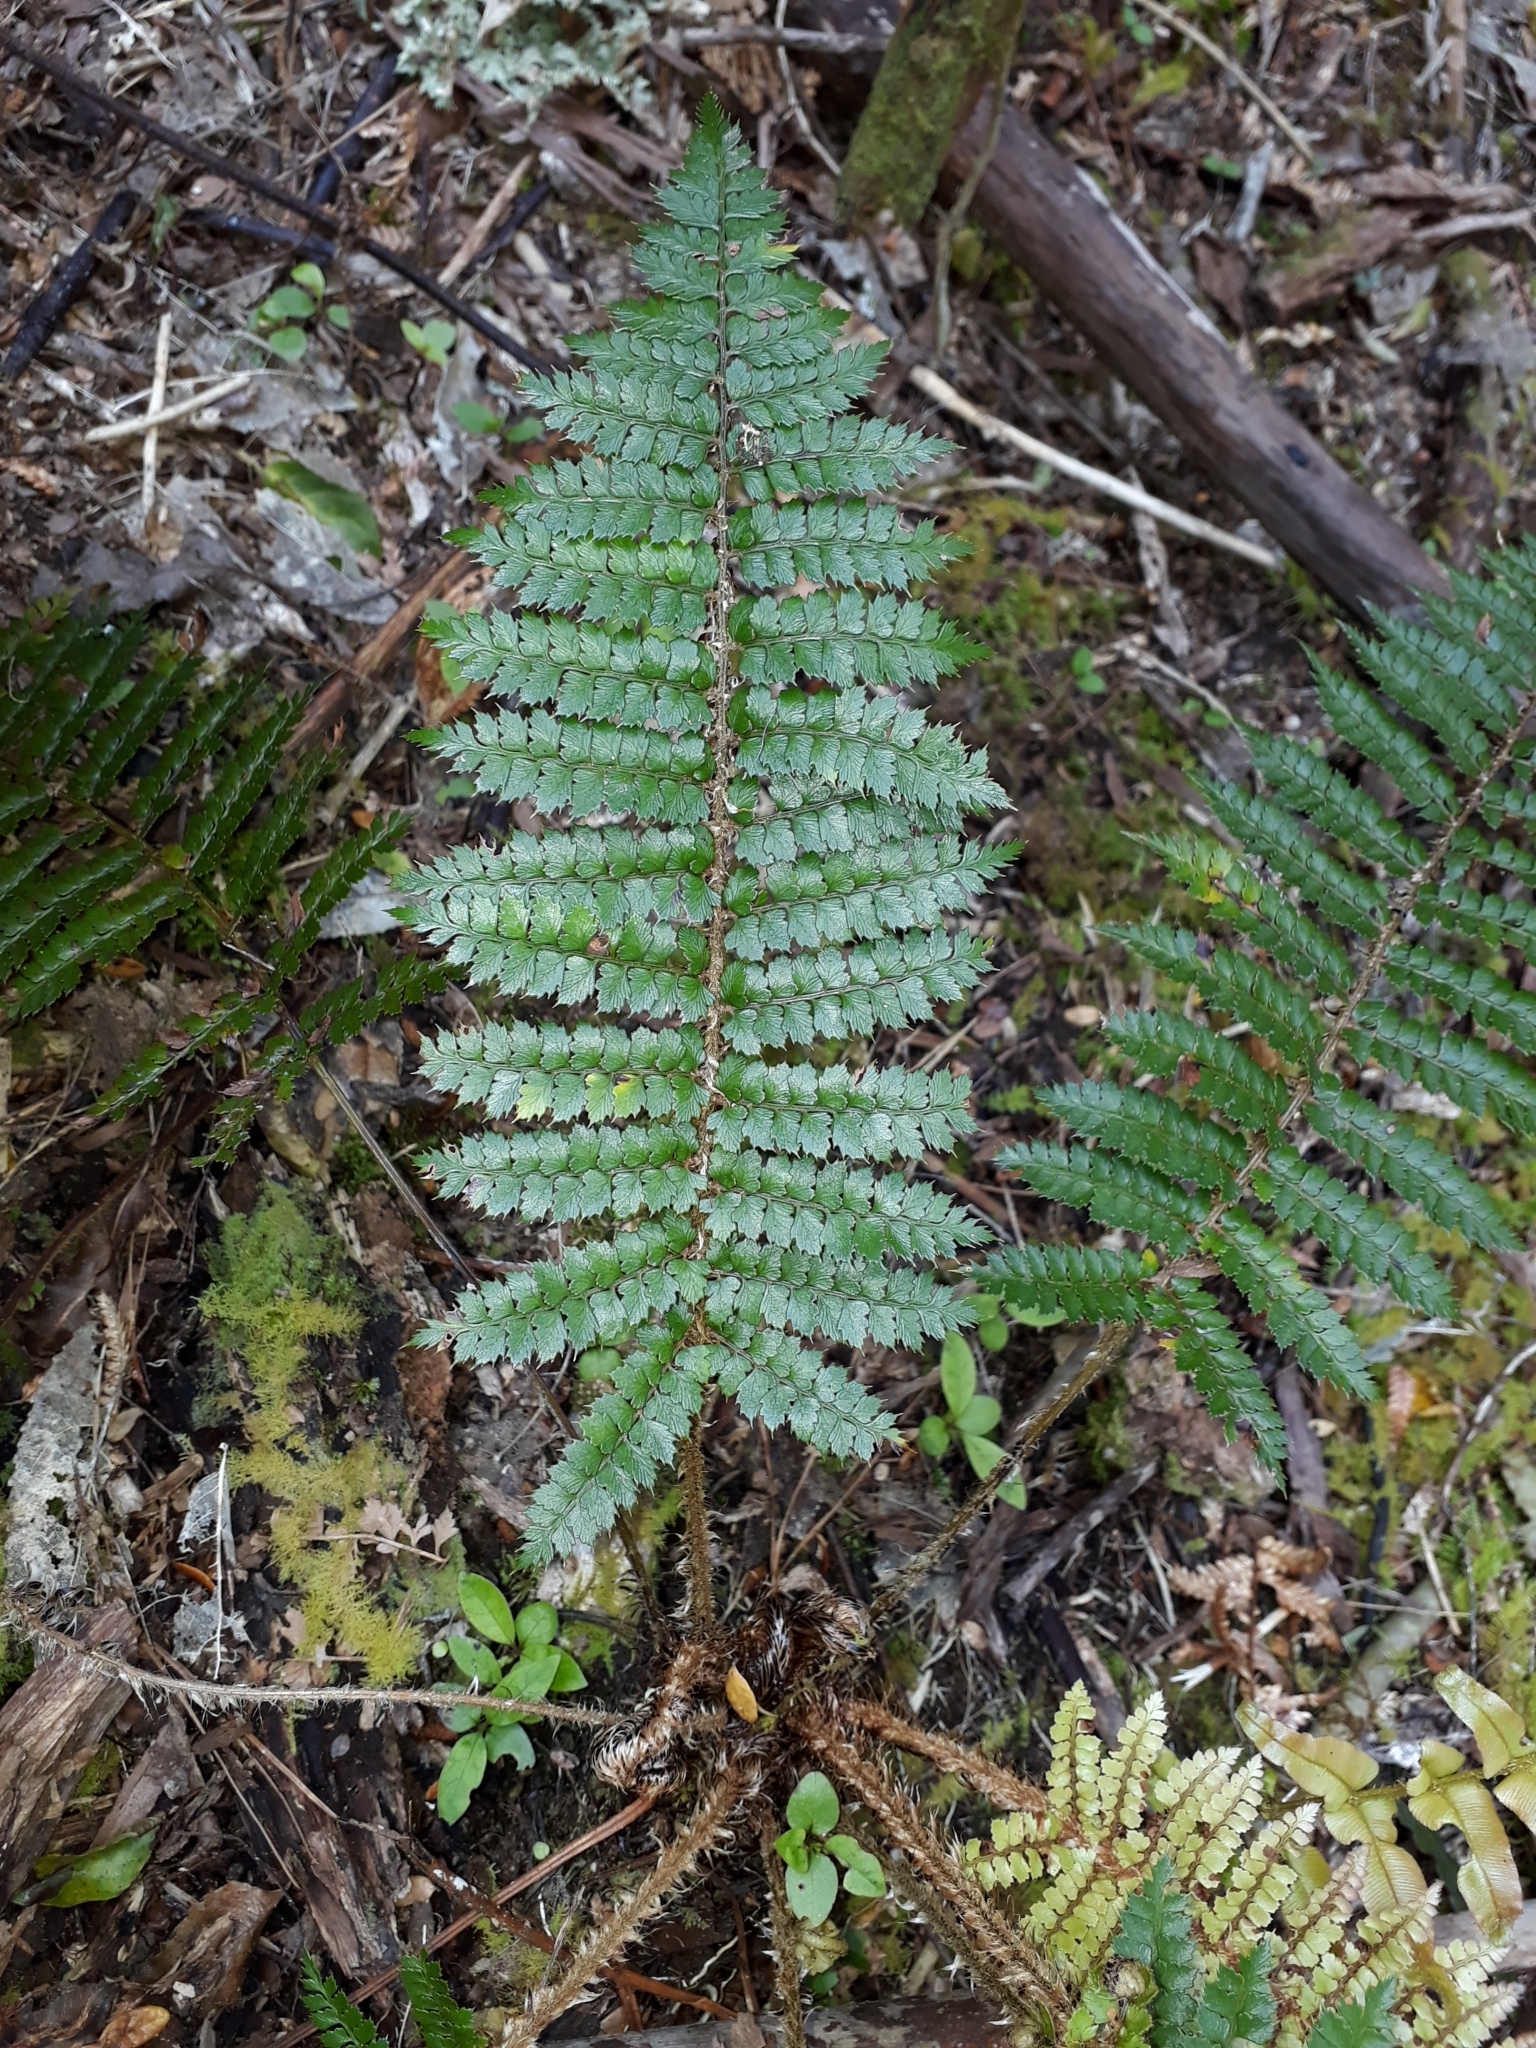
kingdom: Plantae
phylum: Tracheophyta
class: Polypodiopsida
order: Polypodiales
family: Dryopteridaceae
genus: Polystichum
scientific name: Polystichum vestitum
